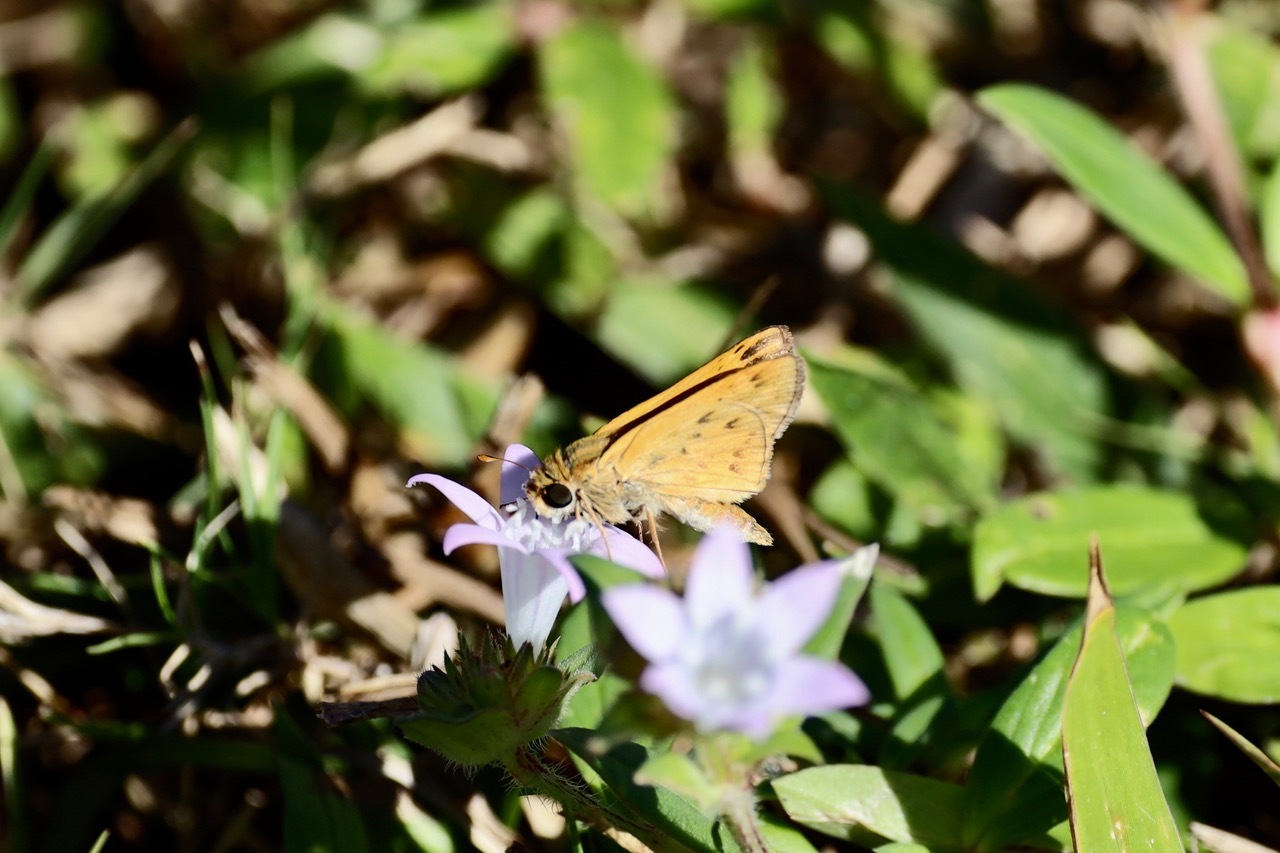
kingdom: Animalia
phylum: Arthropoda
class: Insecta
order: Lepidoptera
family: Hesperiidae
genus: Hylephila
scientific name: Hylephila phyleus
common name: Fiery skipper
